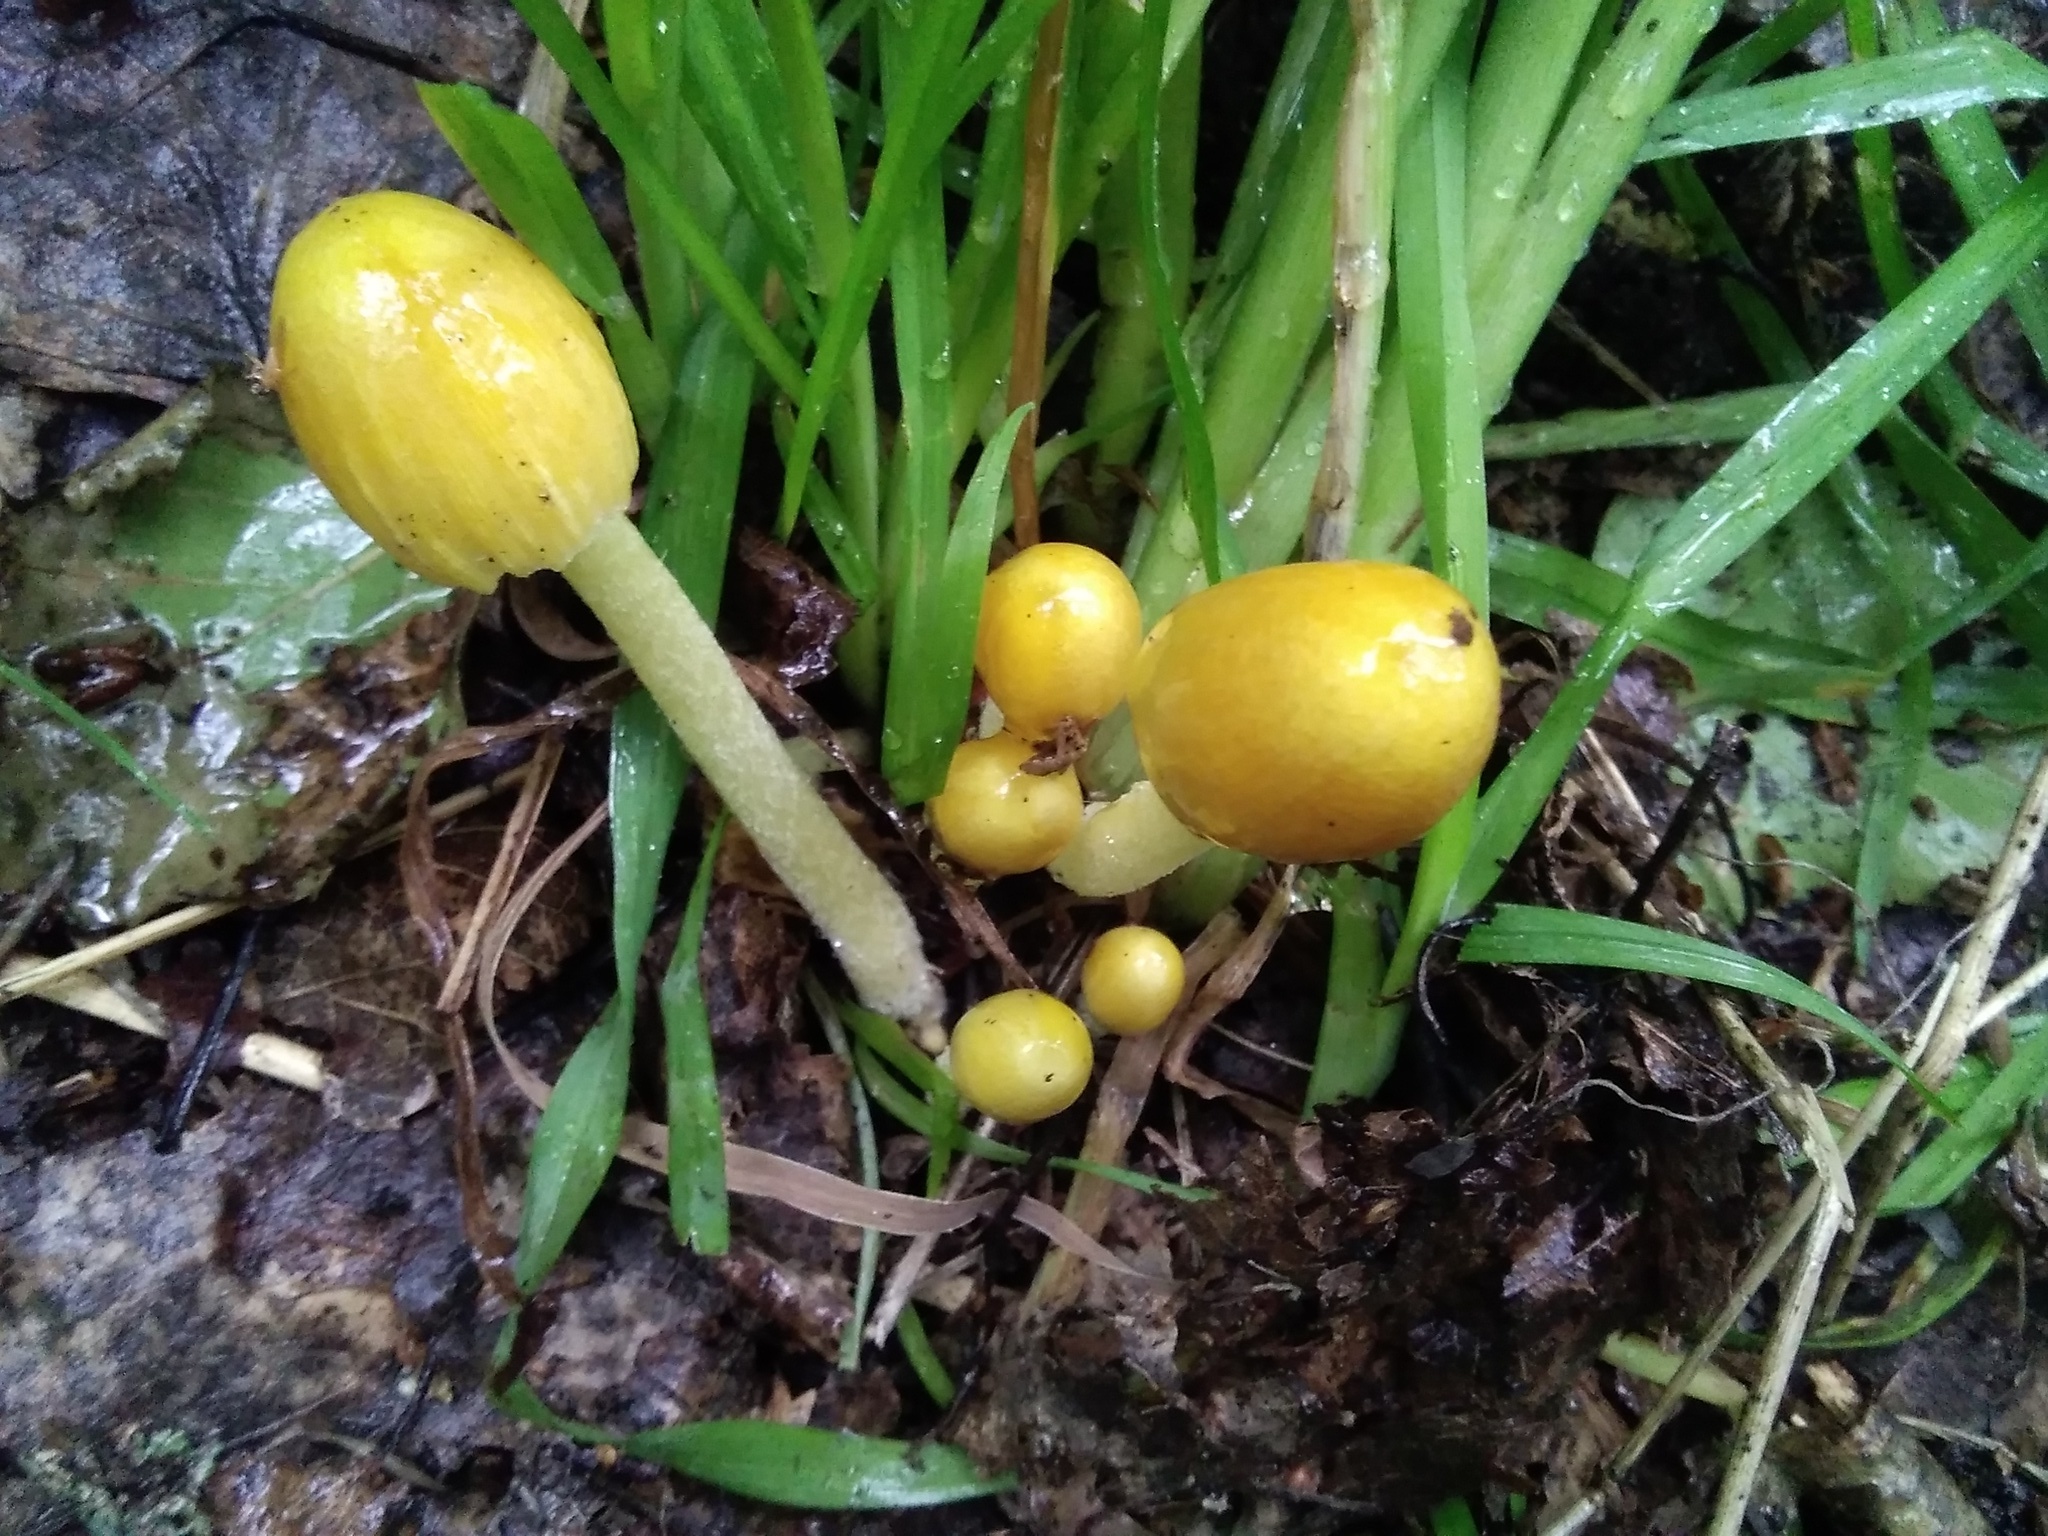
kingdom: Fungi
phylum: Basidiomycota
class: Agaricomycetes
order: Agaricales
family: Bolbitiaceae
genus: Bolbitius
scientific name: Bolbitius titubans
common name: Yellow fieldcap
